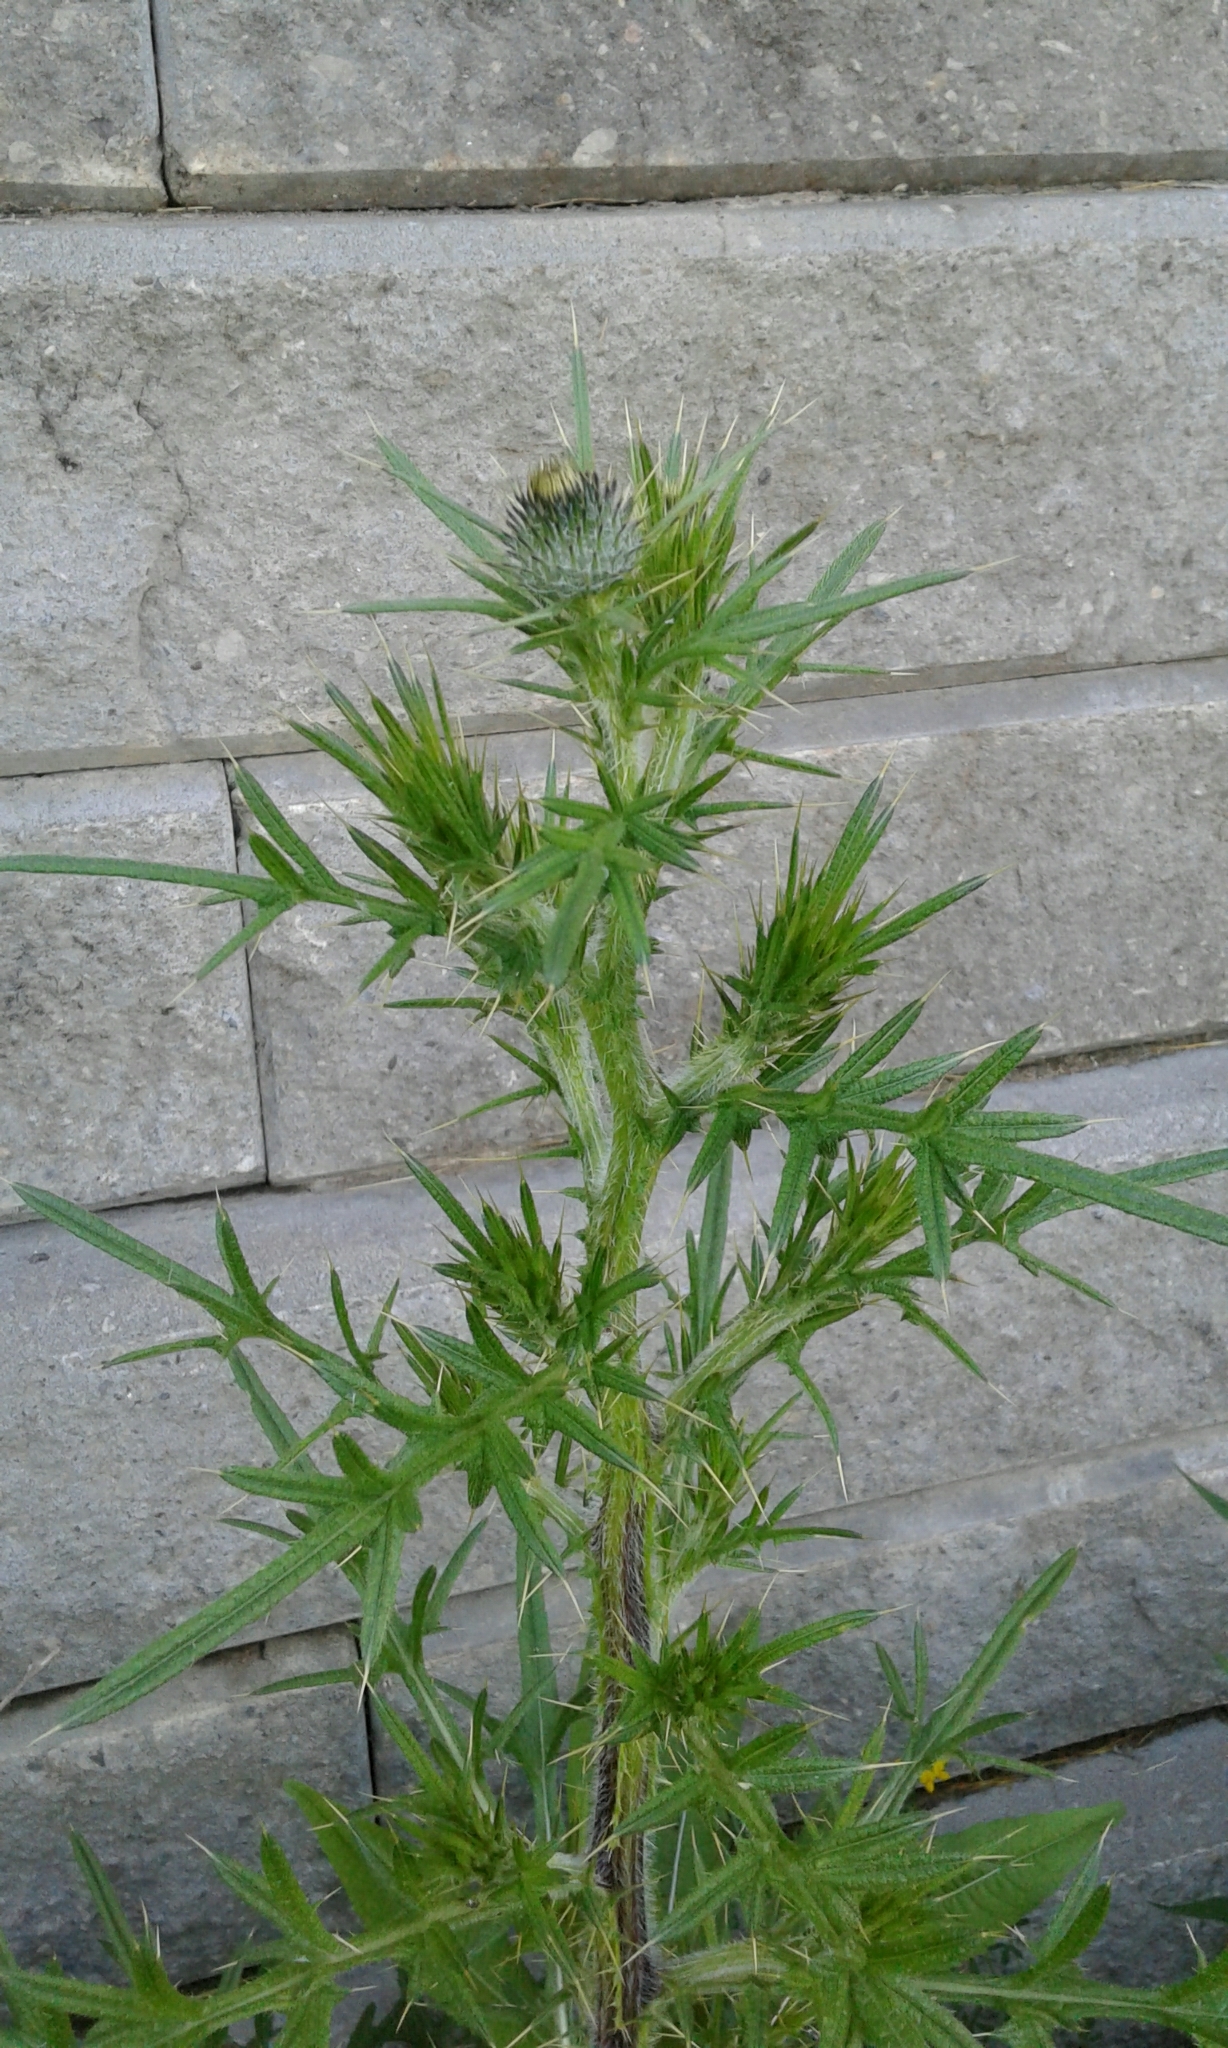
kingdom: Plantae
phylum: Tracheophyta
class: Magnoliopsida
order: Asterales
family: Asteraceae
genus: Cirsium
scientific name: Cirsium vulgare
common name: Bull thistle
